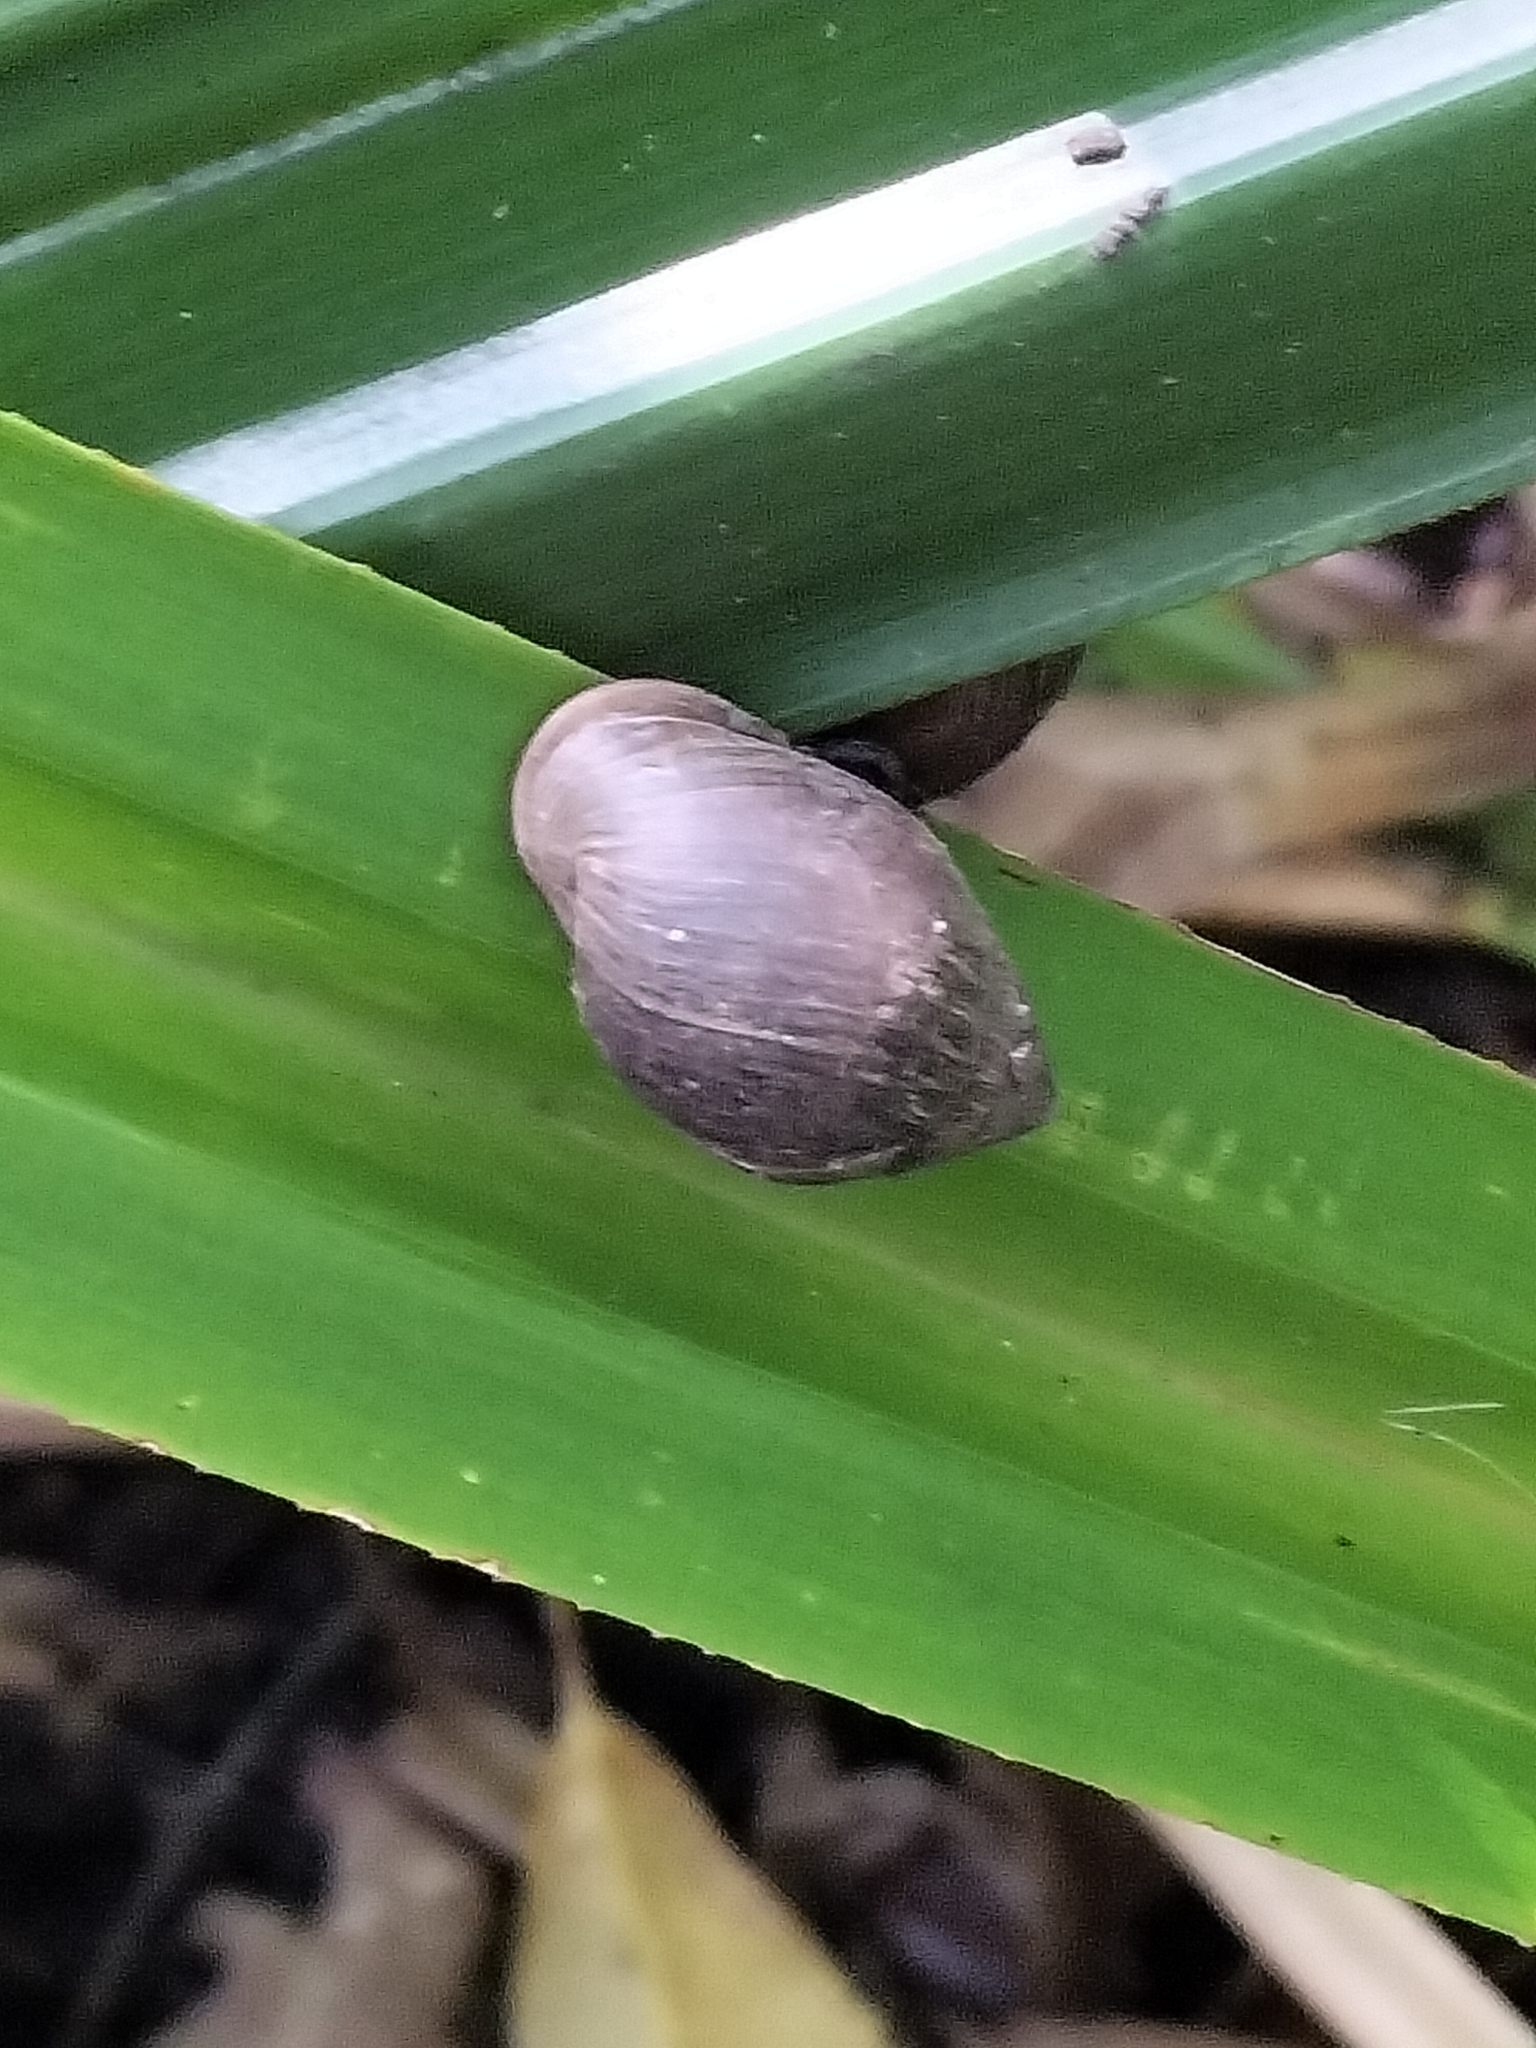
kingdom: Animalia
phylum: Mollusca
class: Gastropoda
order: Ellobiida
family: Ellobiidae
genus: Pythia
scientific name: Pythia scarabaeus
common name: Common pythia
